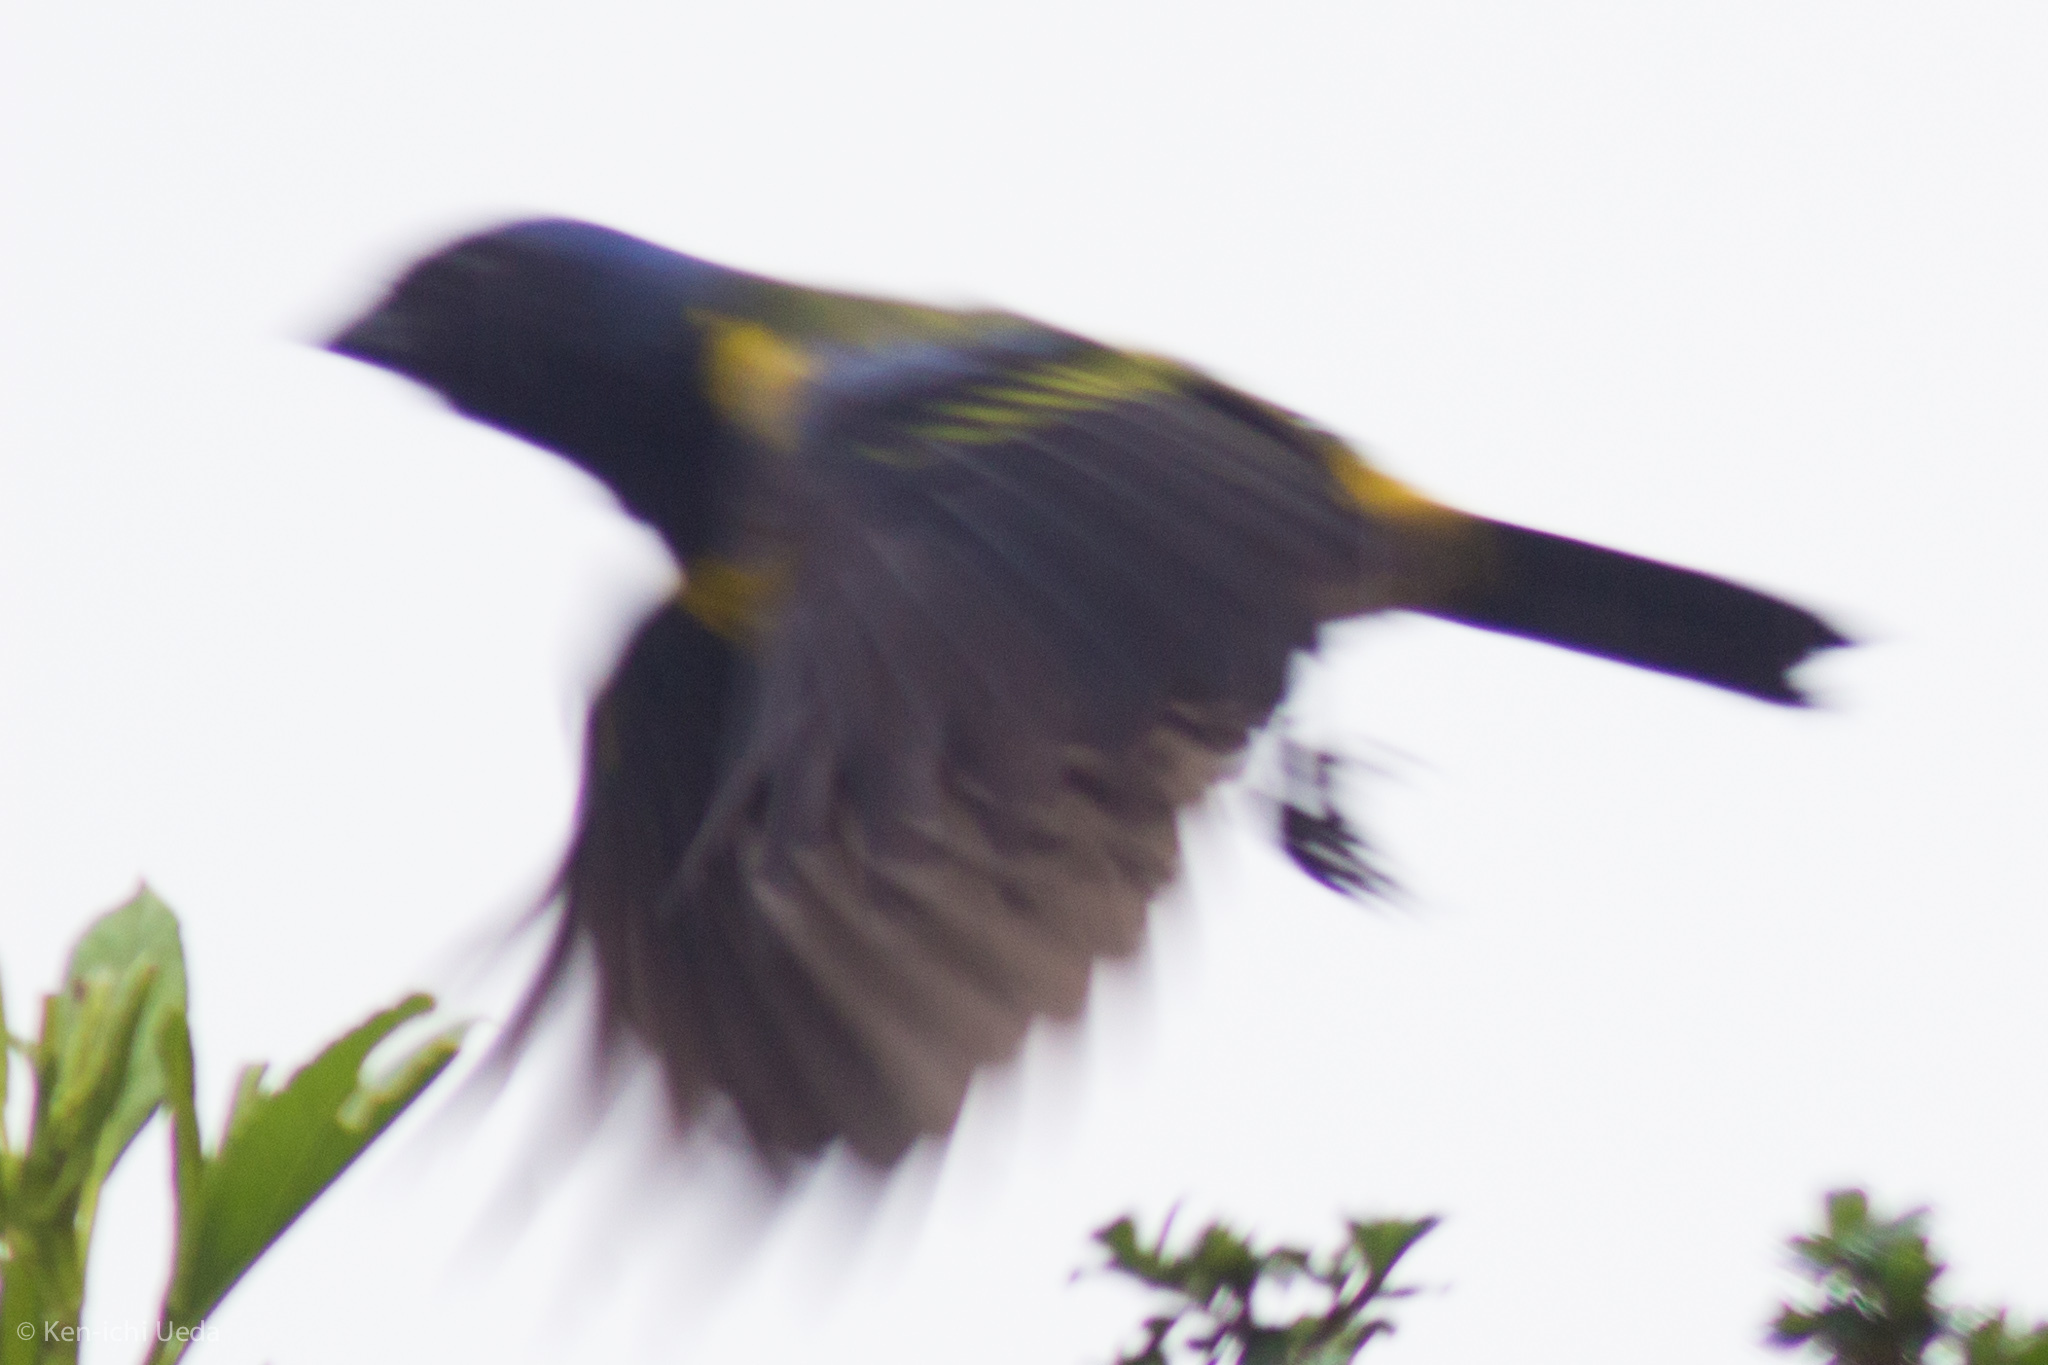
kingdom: Animalia
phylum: Chordata
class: Aves
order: Passeriformes
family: Thraupidae
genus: Cnemathraupis
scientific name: Cnemathraupis eximia
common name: Black-chested mountain-tanager
